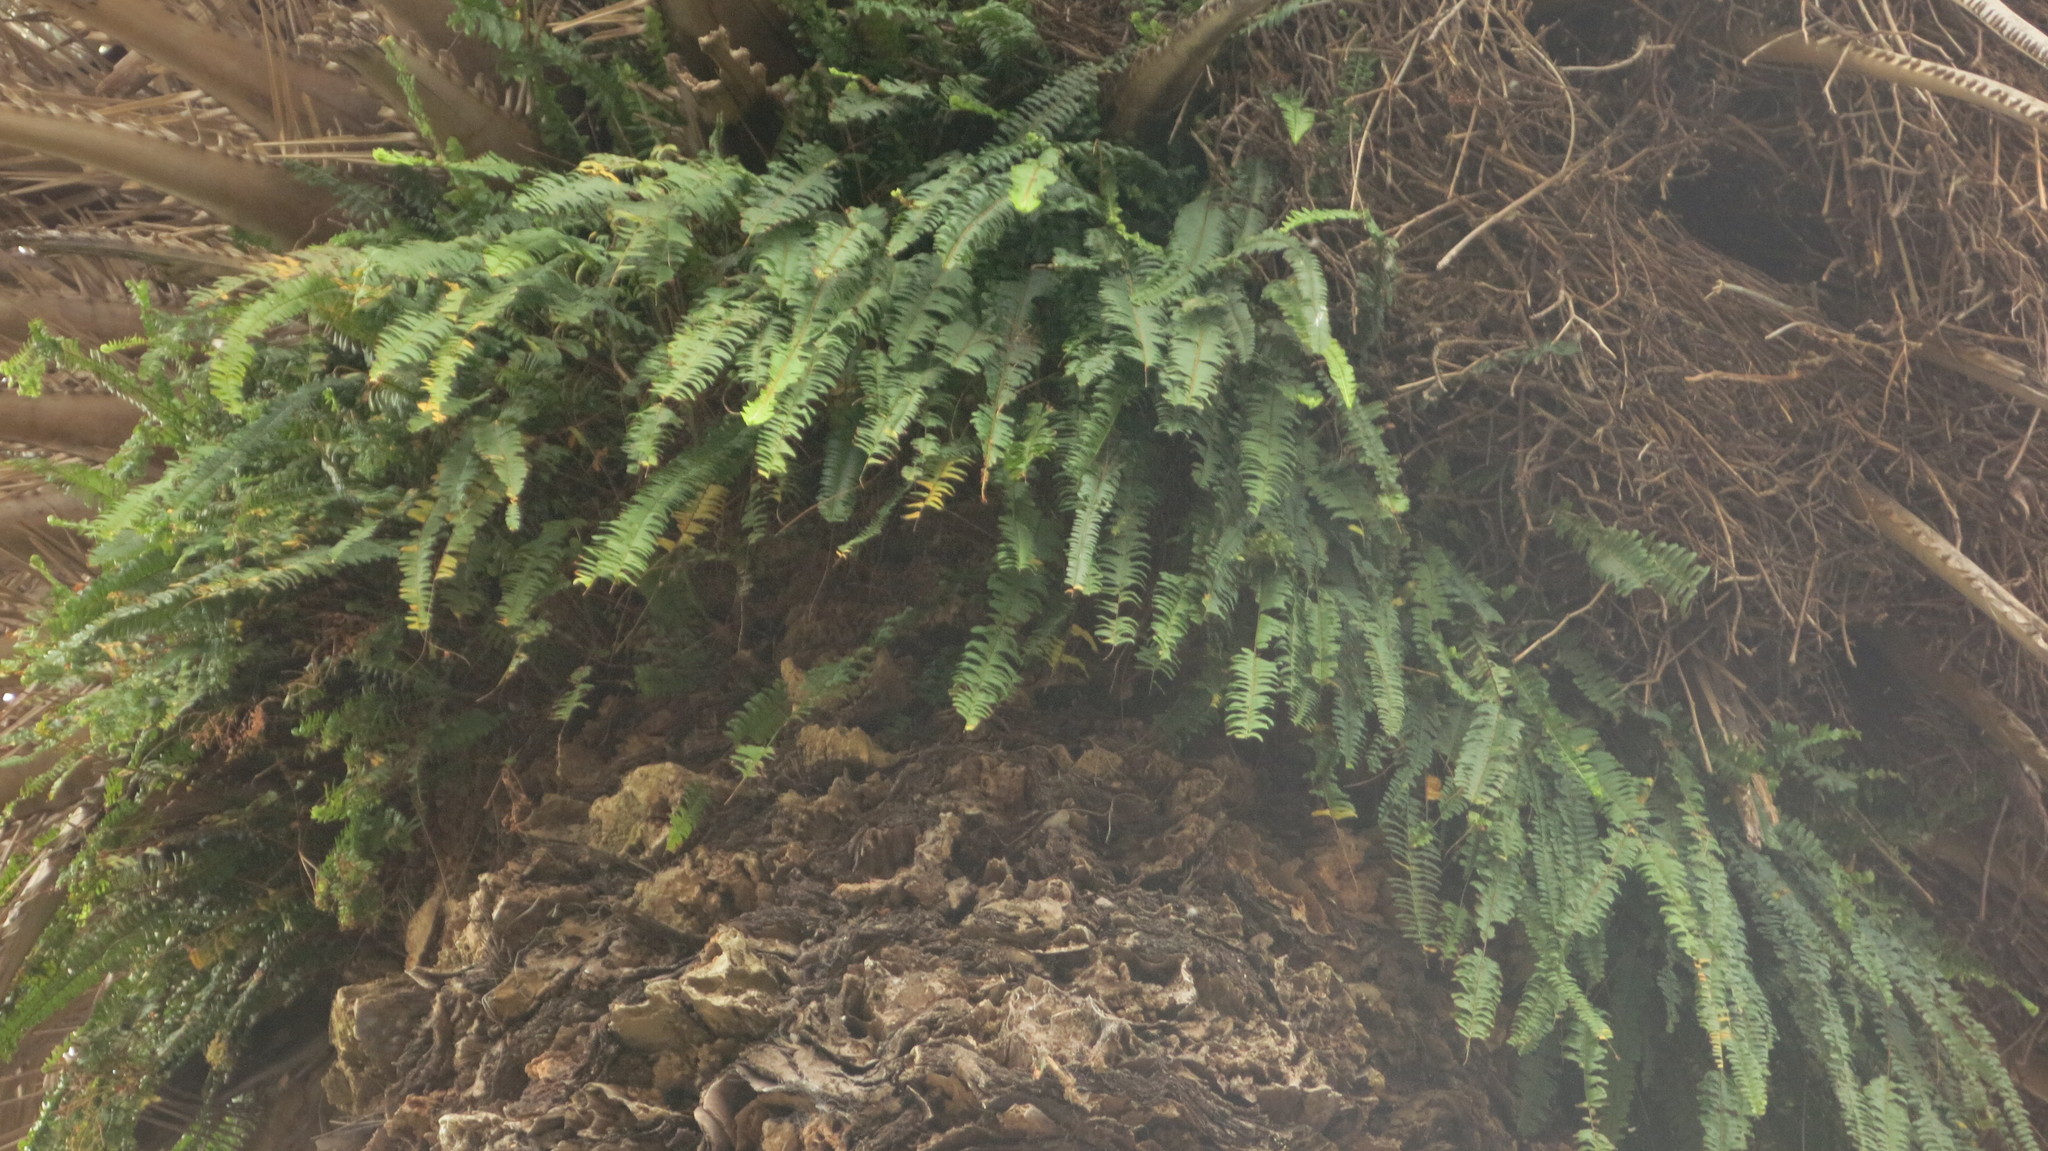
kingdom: Plantae
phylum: Tracheophyta
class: Polypodiopsida
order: Polypodiales
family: Nephrolepidaceae
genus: Nephrolepis
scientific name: Nephrolepis cordifolia
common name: Narrow swordfern
